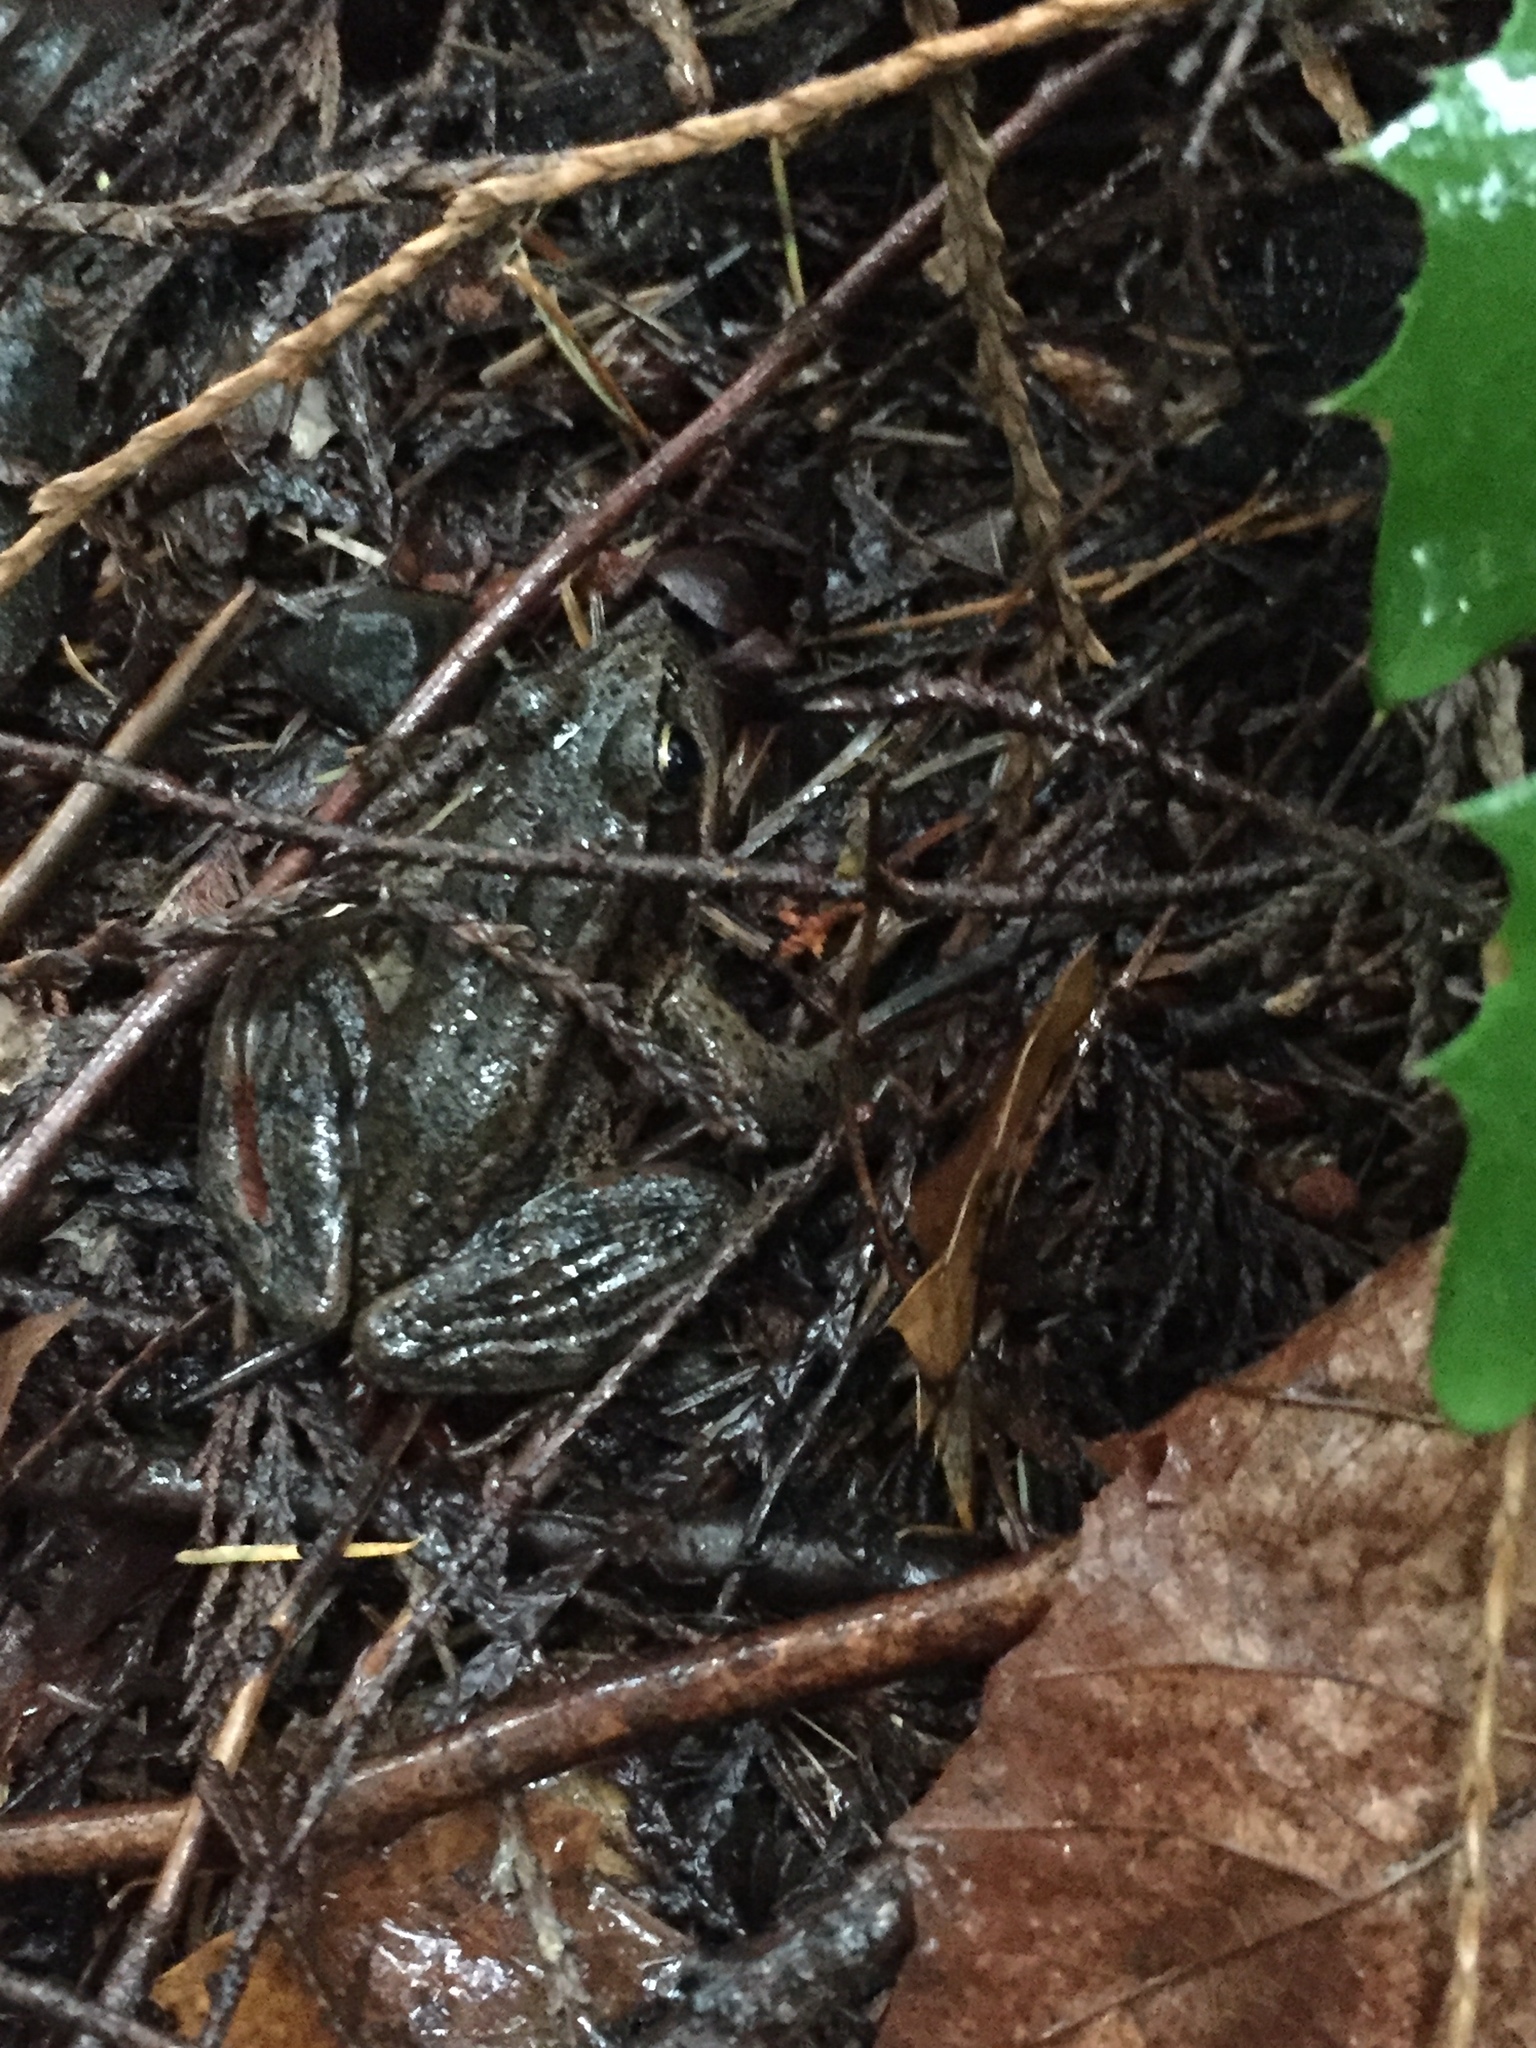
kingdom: Animalia
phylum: Chordata
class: Amphibia
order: Anura
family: Ranidae
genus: Rana
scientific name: Rana aurora
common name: Red-legged frog
